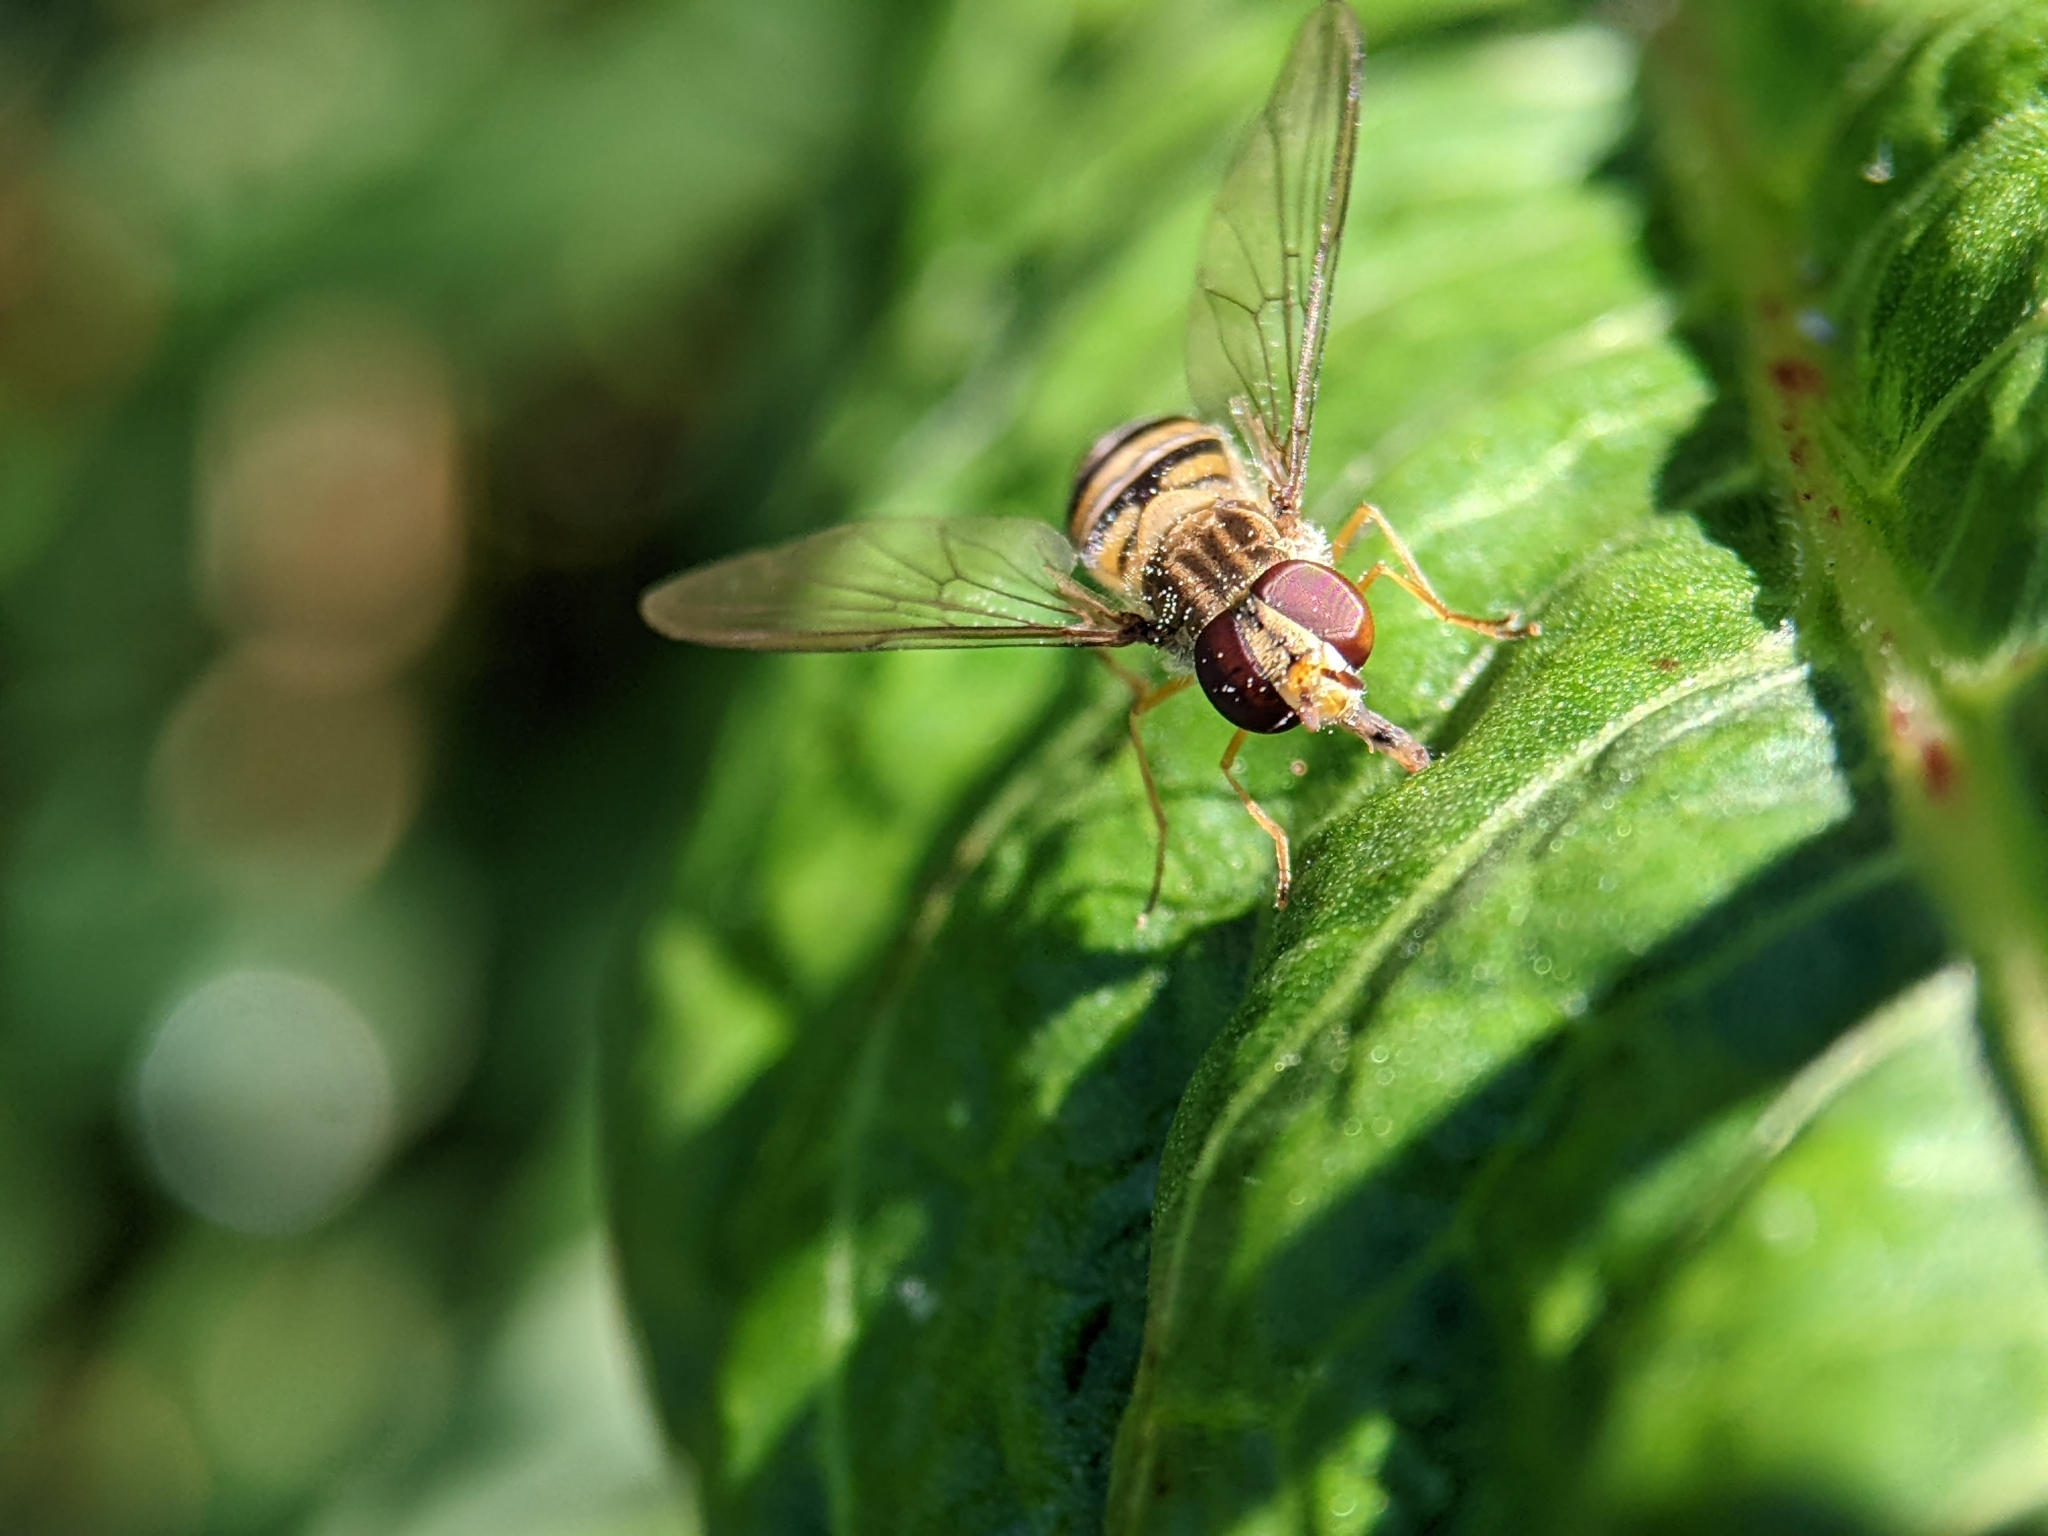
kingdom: Animalia
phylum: Arthropoda
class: Insecta
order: Diptera
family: Syrphidae
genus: Episyrphus
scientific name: Episyrphus balteatus
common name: Marmalade hoverfly
